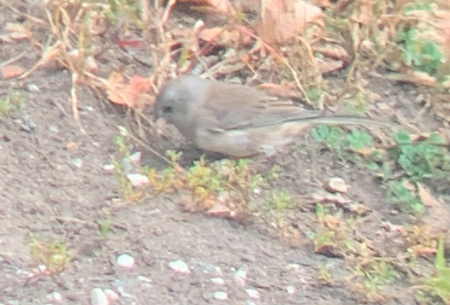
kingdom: Animalia
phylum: Chordata
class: Aves
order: Passeriformes
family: Passerellidae
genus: Junco
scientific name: Junco hyemalis
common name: Dark-eyed junco
